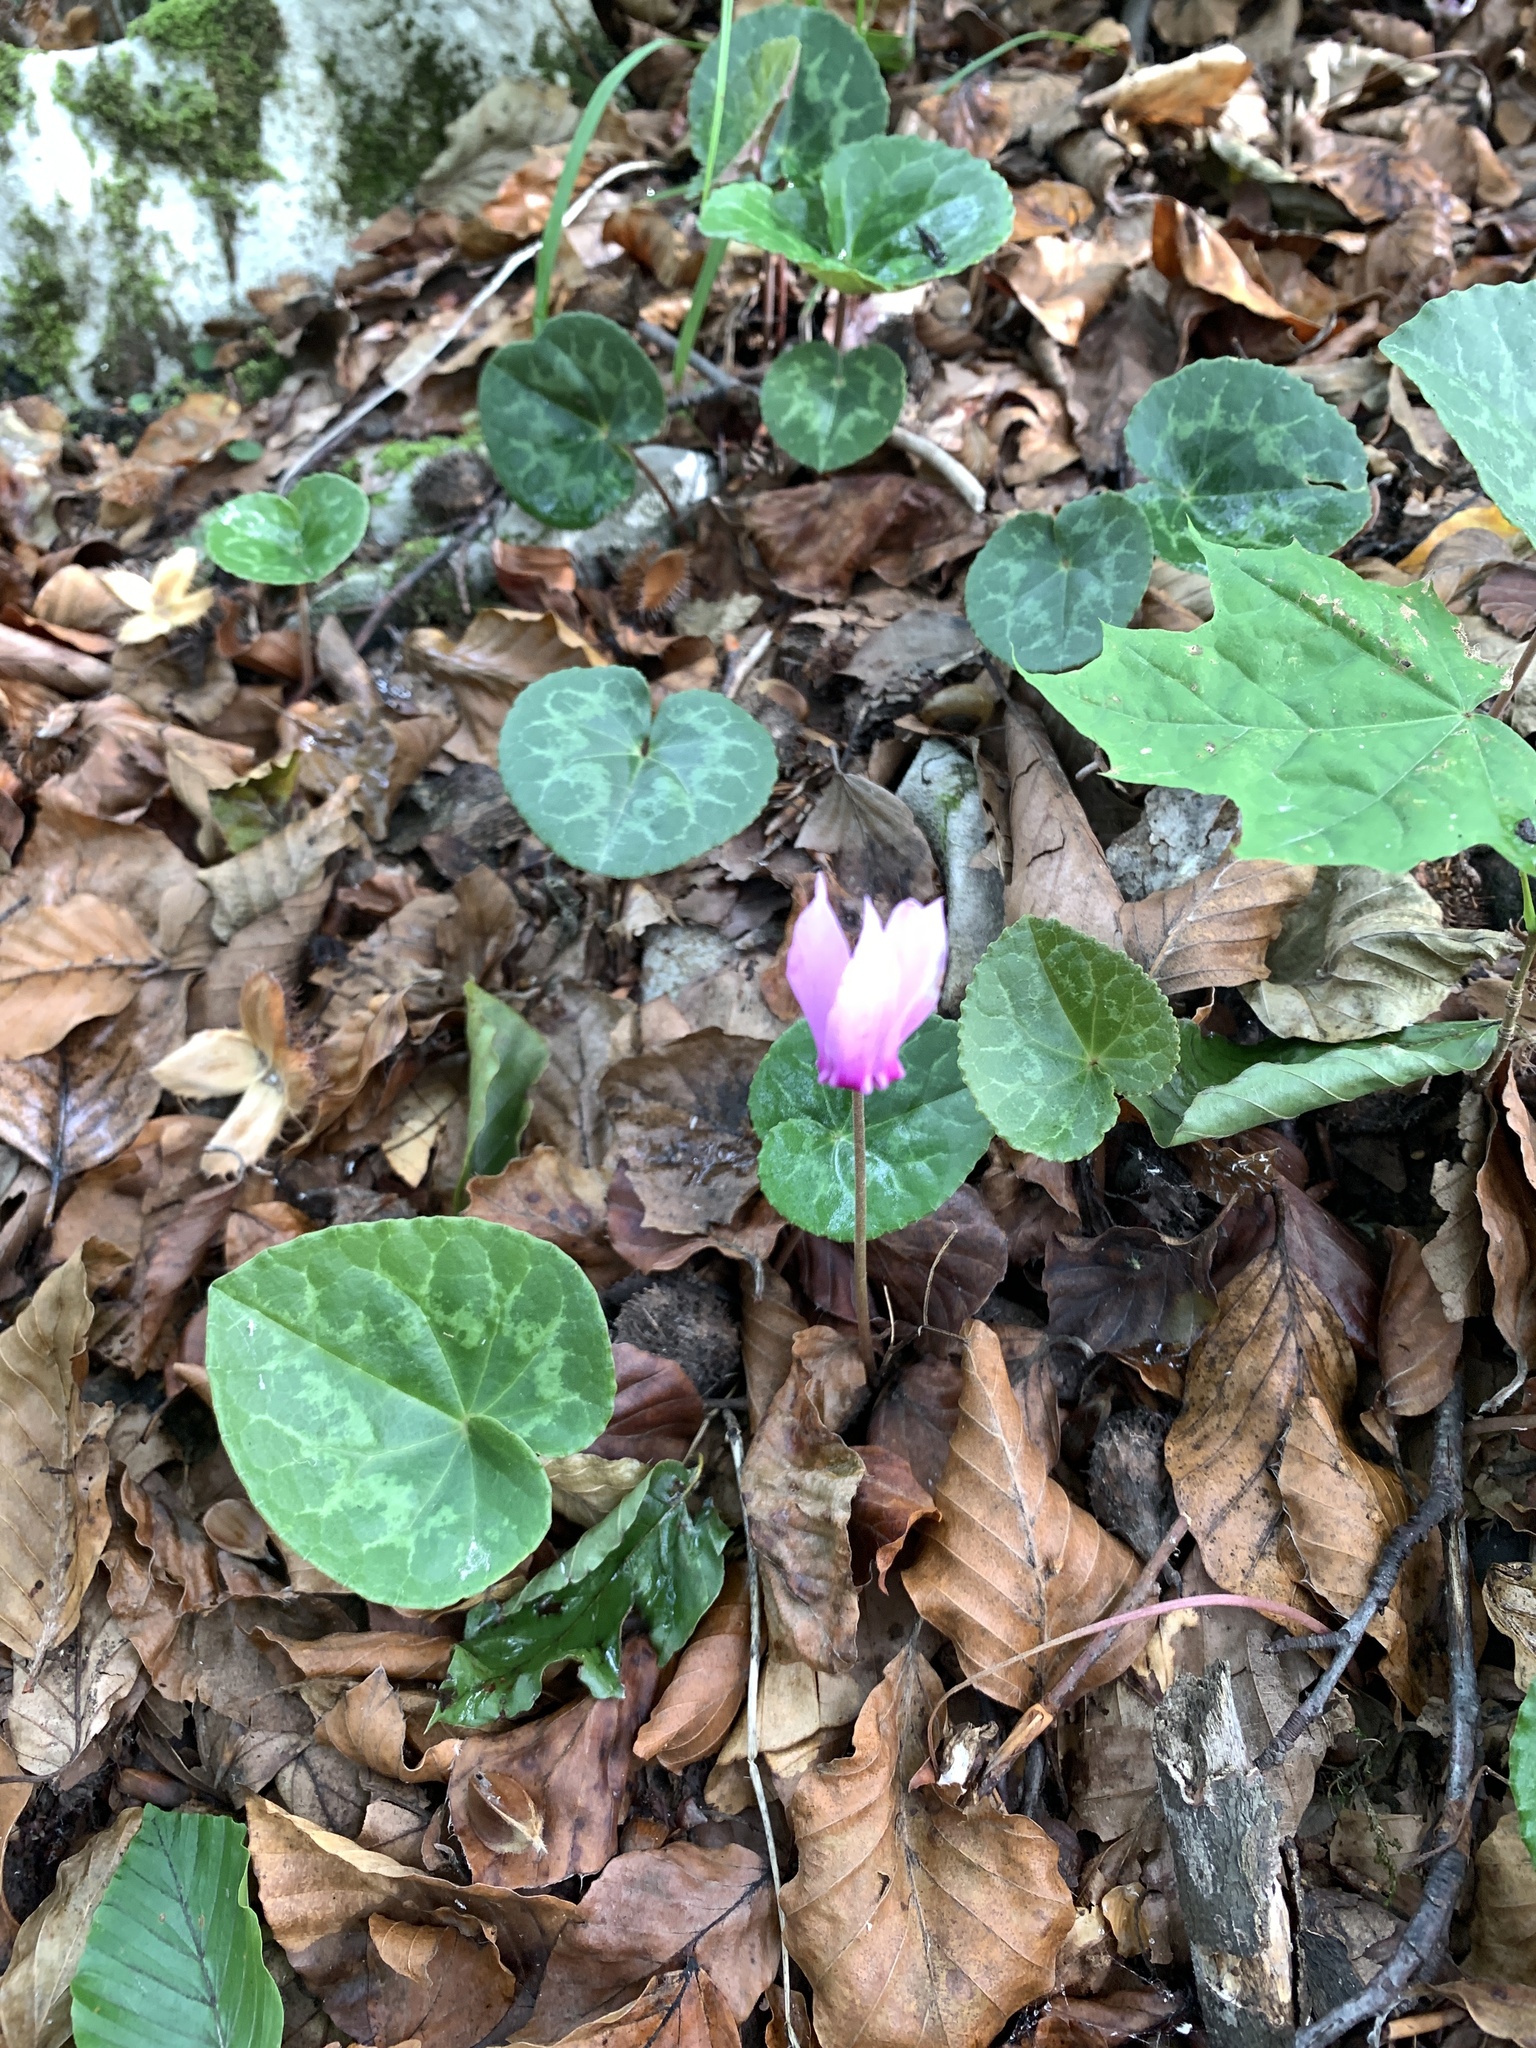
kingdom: Plantae
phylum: Tracheophyta
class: Magnoliopsida
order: Ericales
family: Primulaceae
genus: Cyclamen
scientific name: Cyclamen purpurascens
